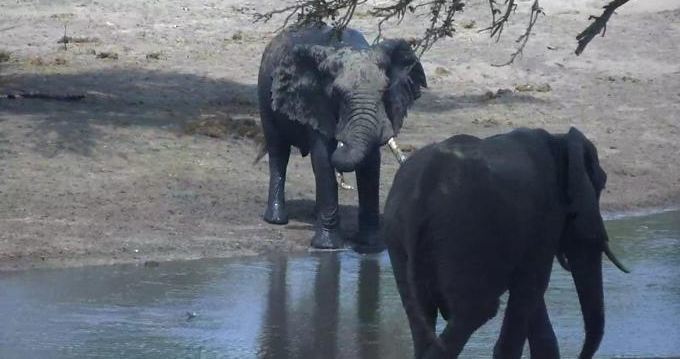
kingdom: Animalia
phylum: Chordata
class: Mammalia
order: Proboscidea
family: Elephantidae
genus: Loxodonta
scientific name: Loxodonta africana
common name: African elephant
